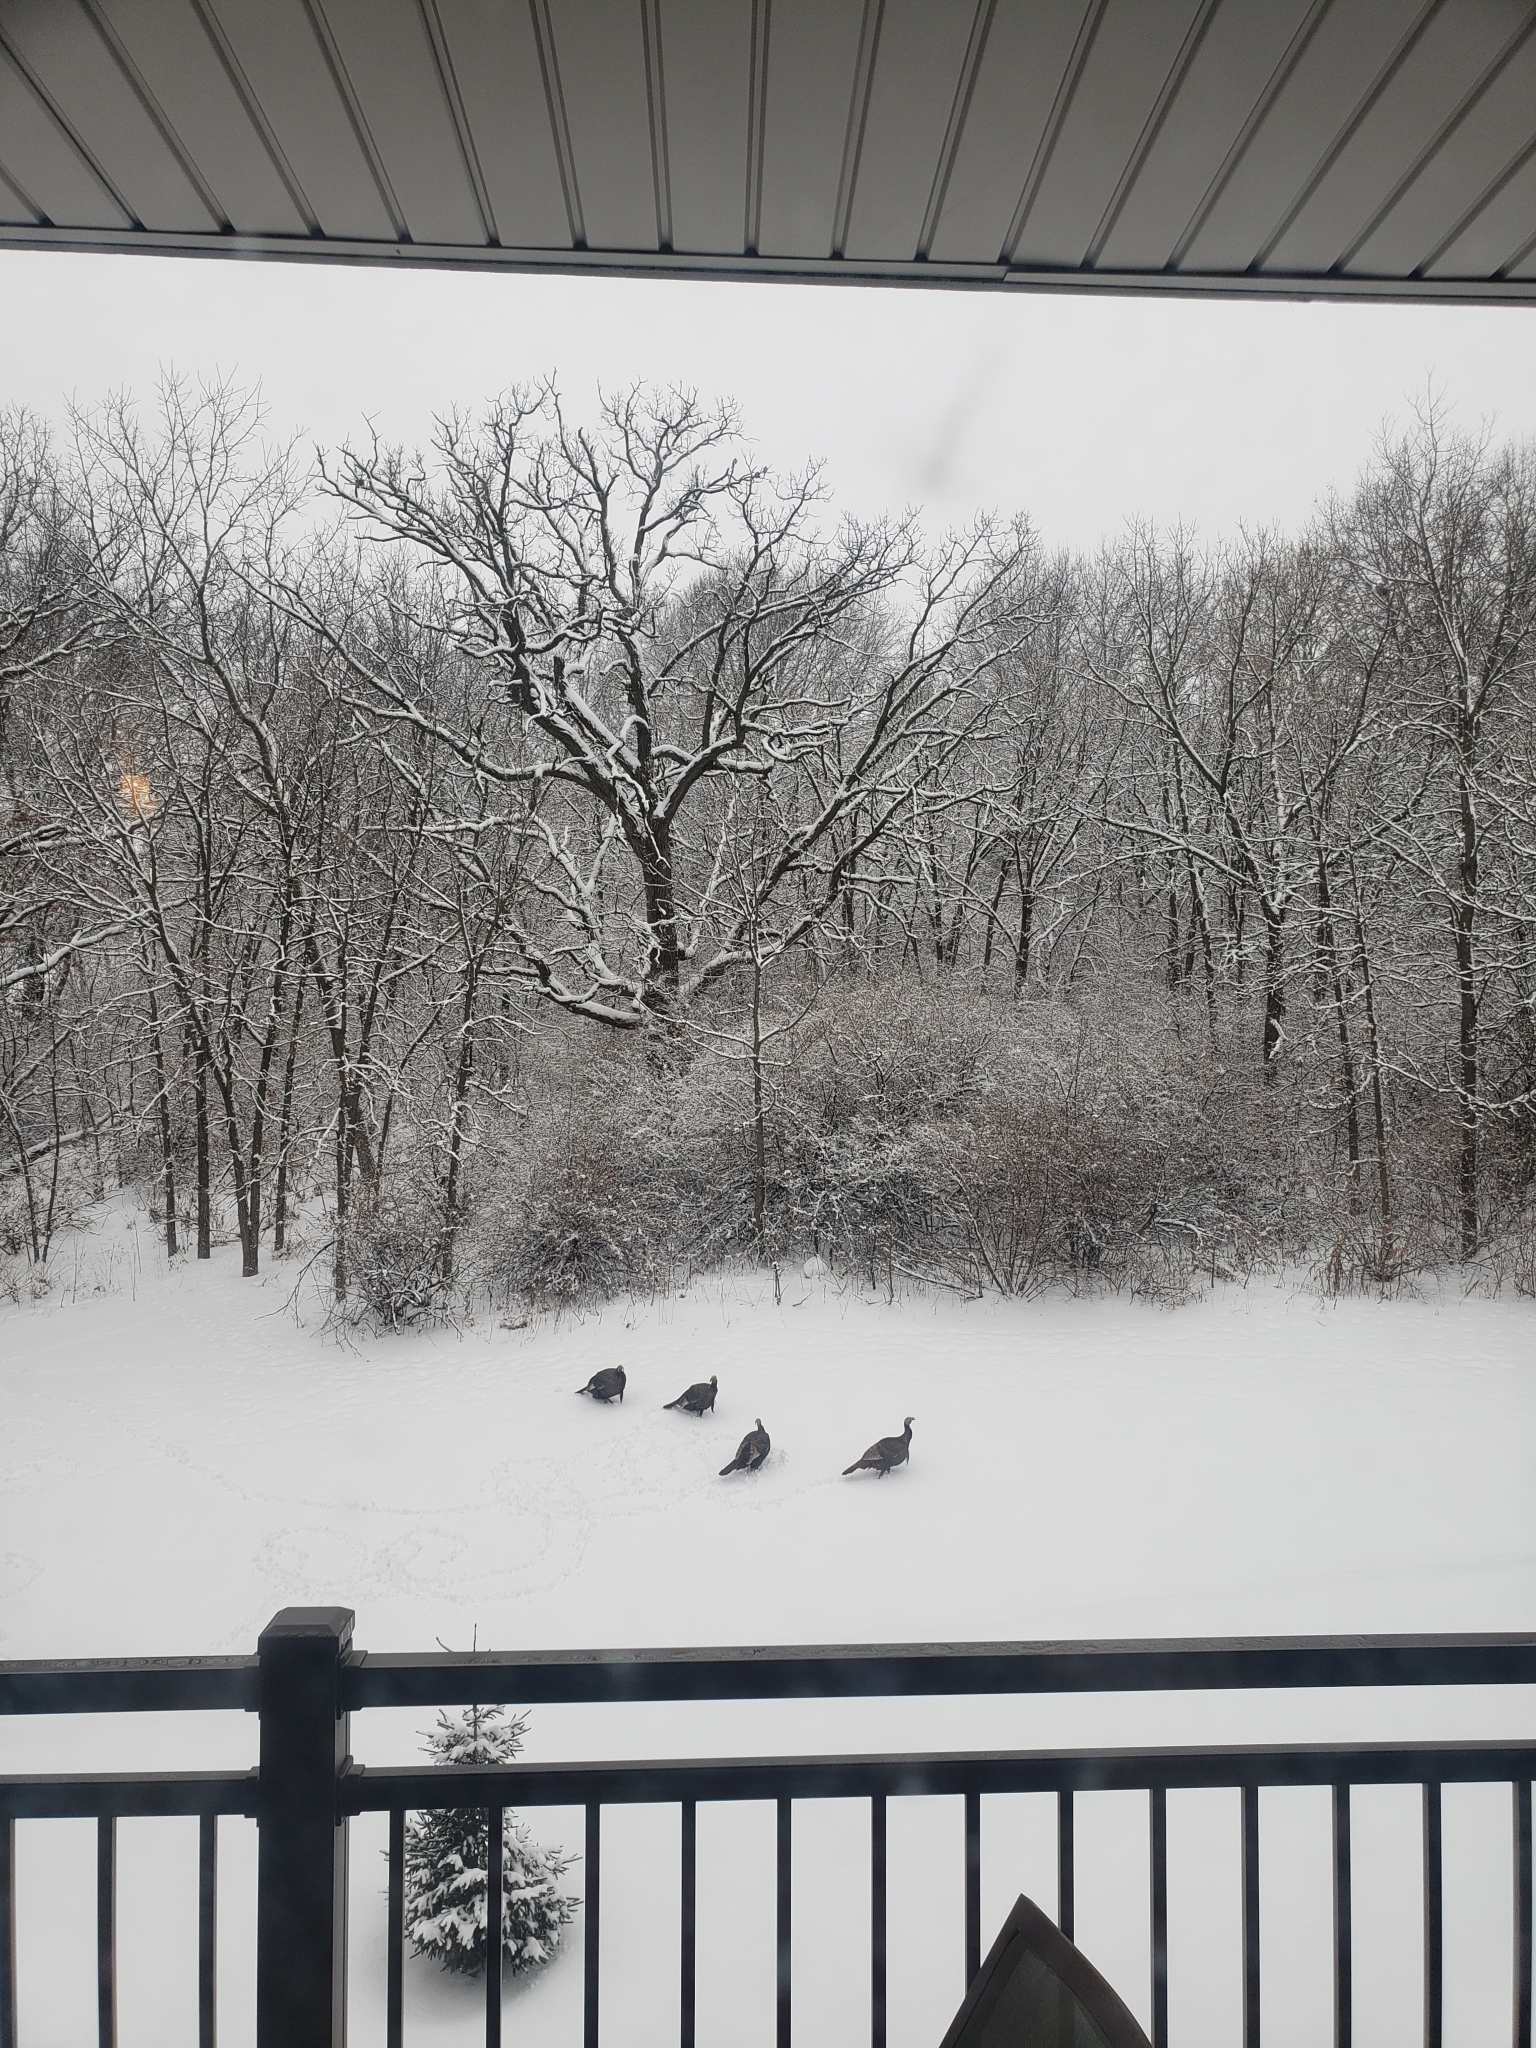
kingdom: Animalia
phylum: Chordata
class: Aves
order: Galliformes
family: Phasianidae
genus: Meleagris
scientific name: Meleagris gallopavo
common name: Wild turkey
